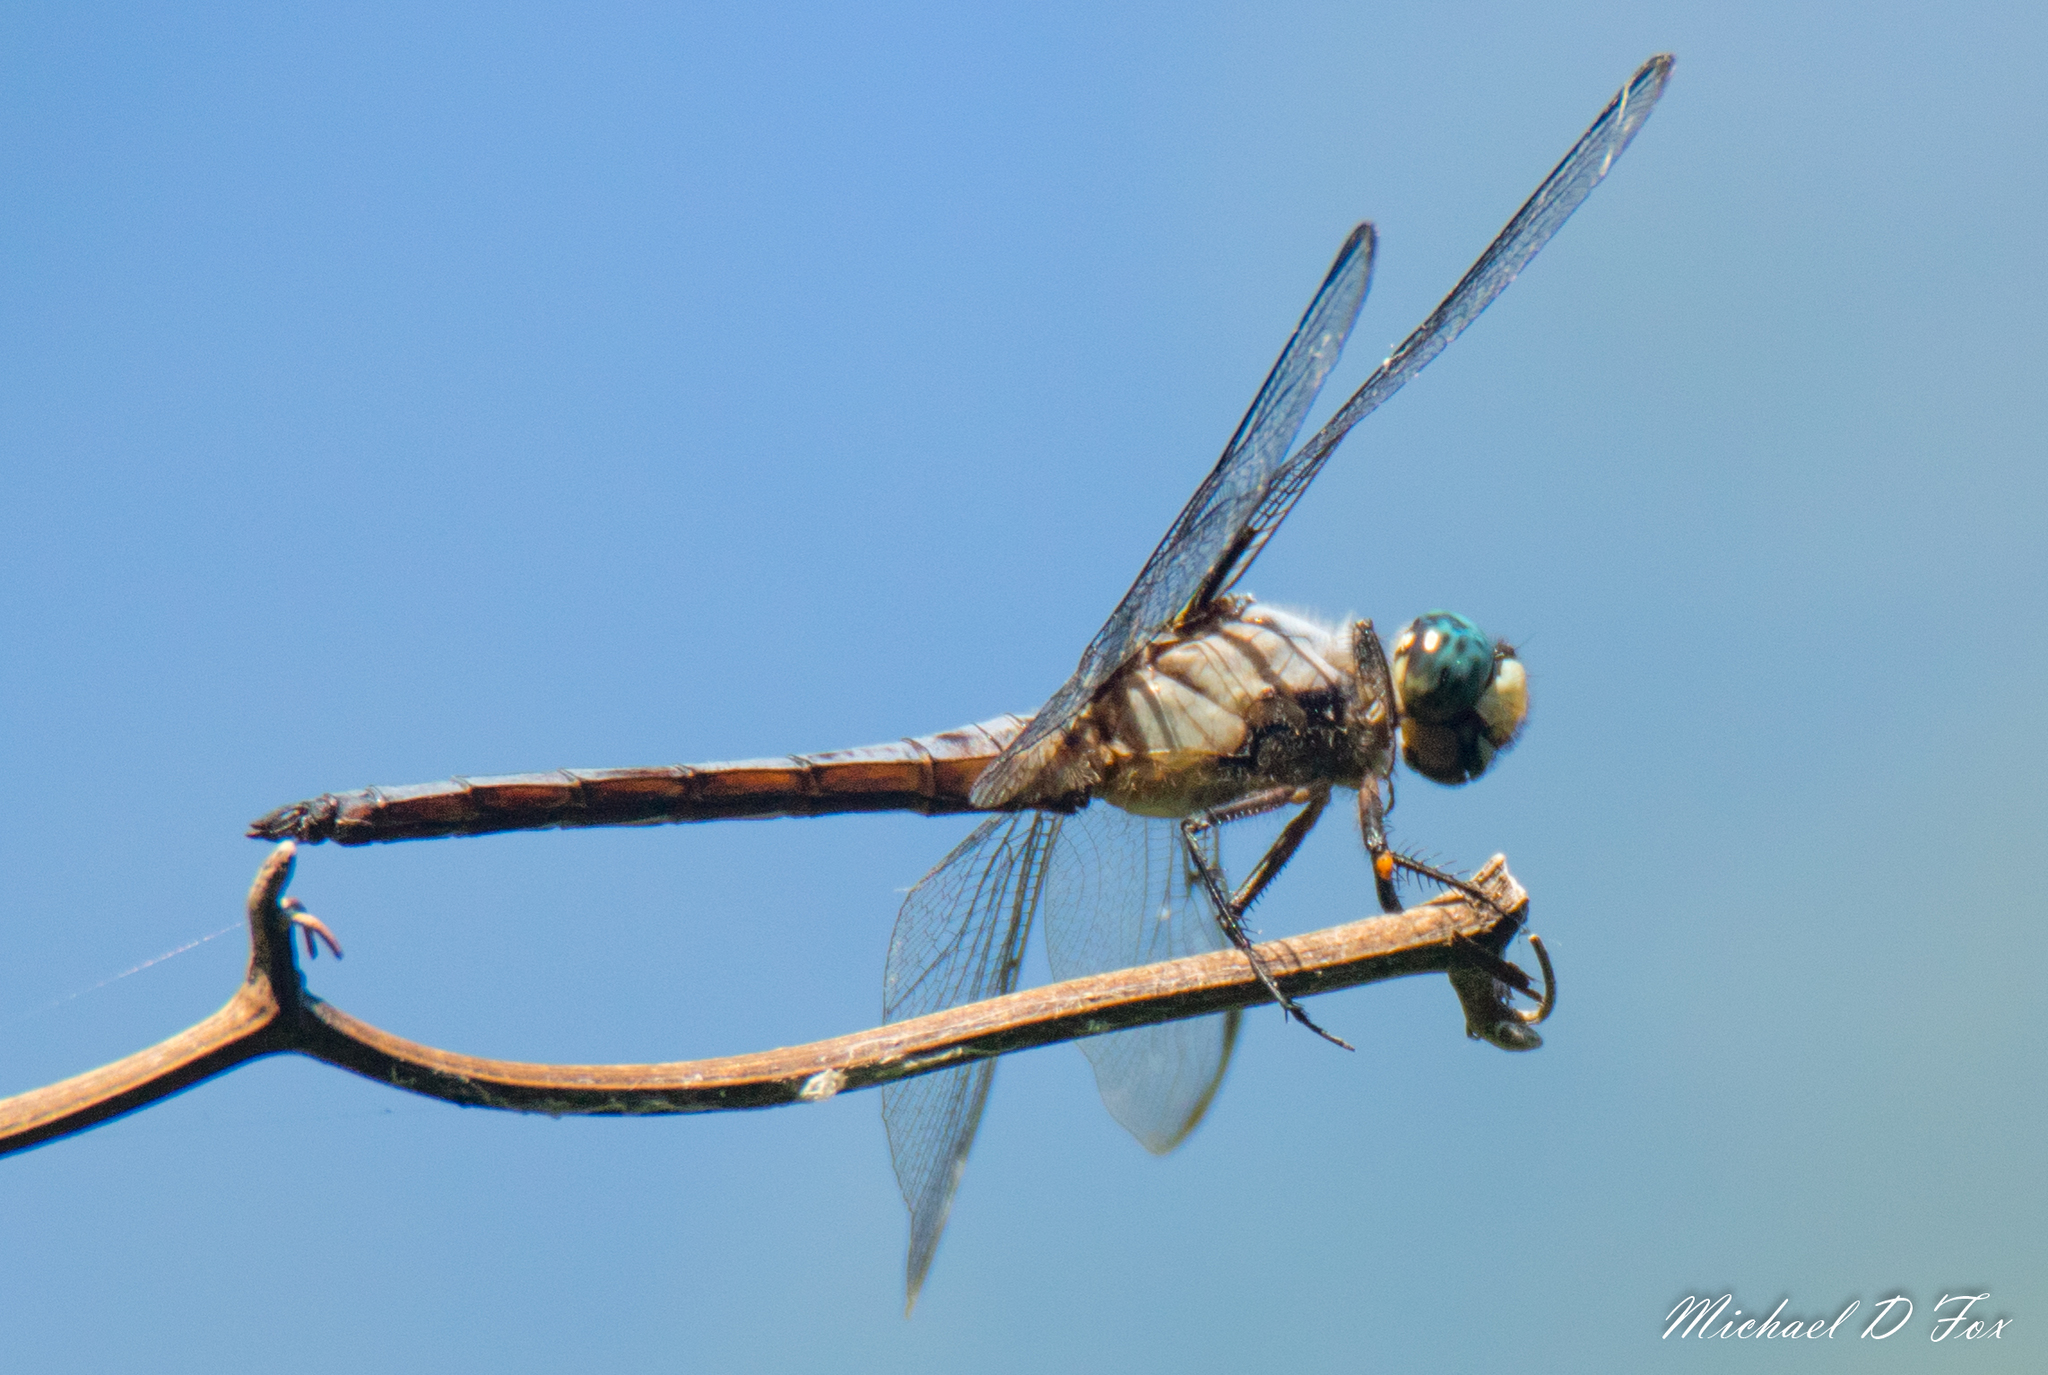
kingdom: Animalia
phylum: Arthropoda
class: Insecta
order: Odonata
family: Libellulidae
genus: Libellula
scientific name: Libellula vibrans
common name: Great blue skimmer
